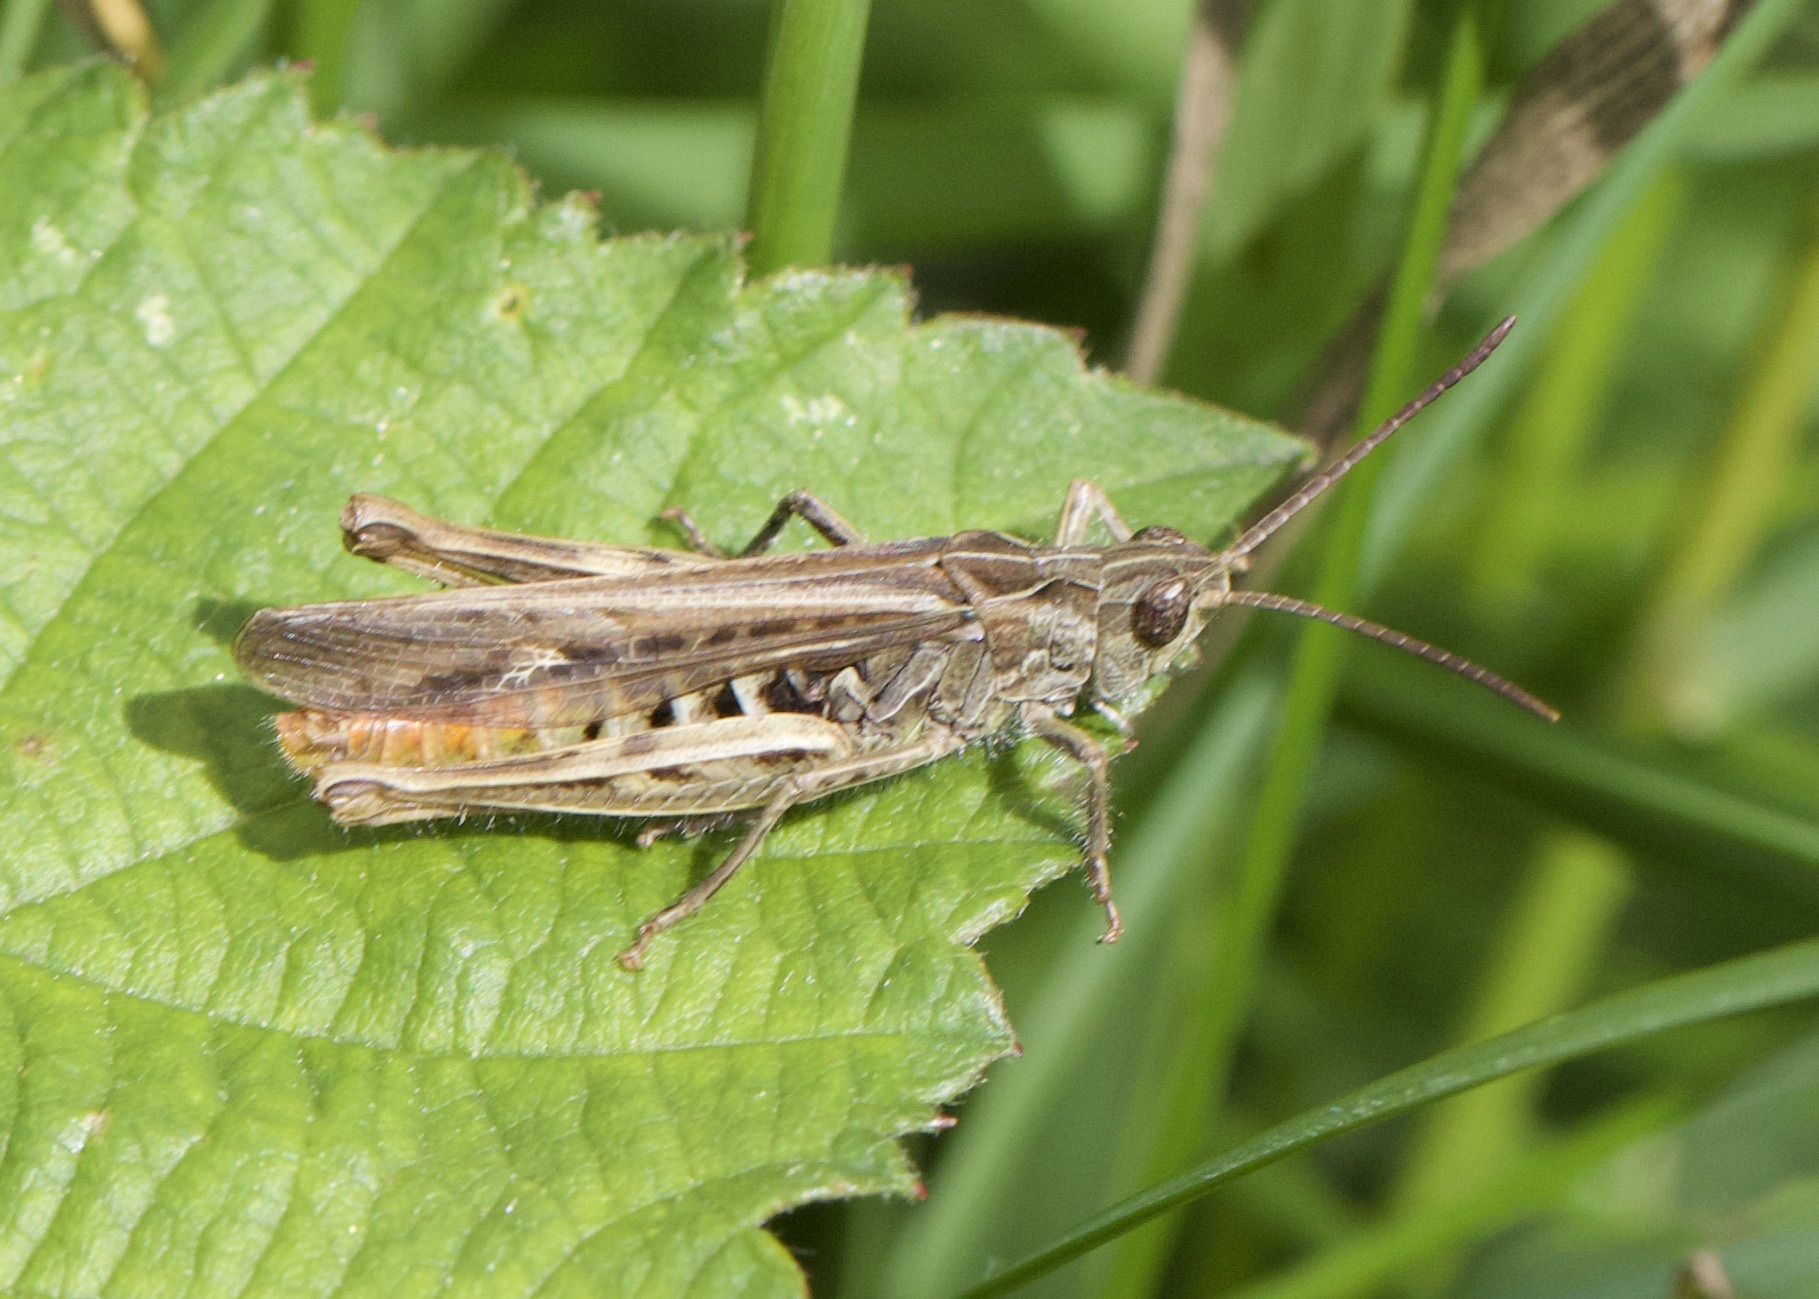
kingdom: Animalia
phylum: Arthropoda
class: Insecta
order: Orthoptera
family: Acrididae
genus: Chorthippus
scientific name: Chorthippus brunneus
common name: Field grasshopper
